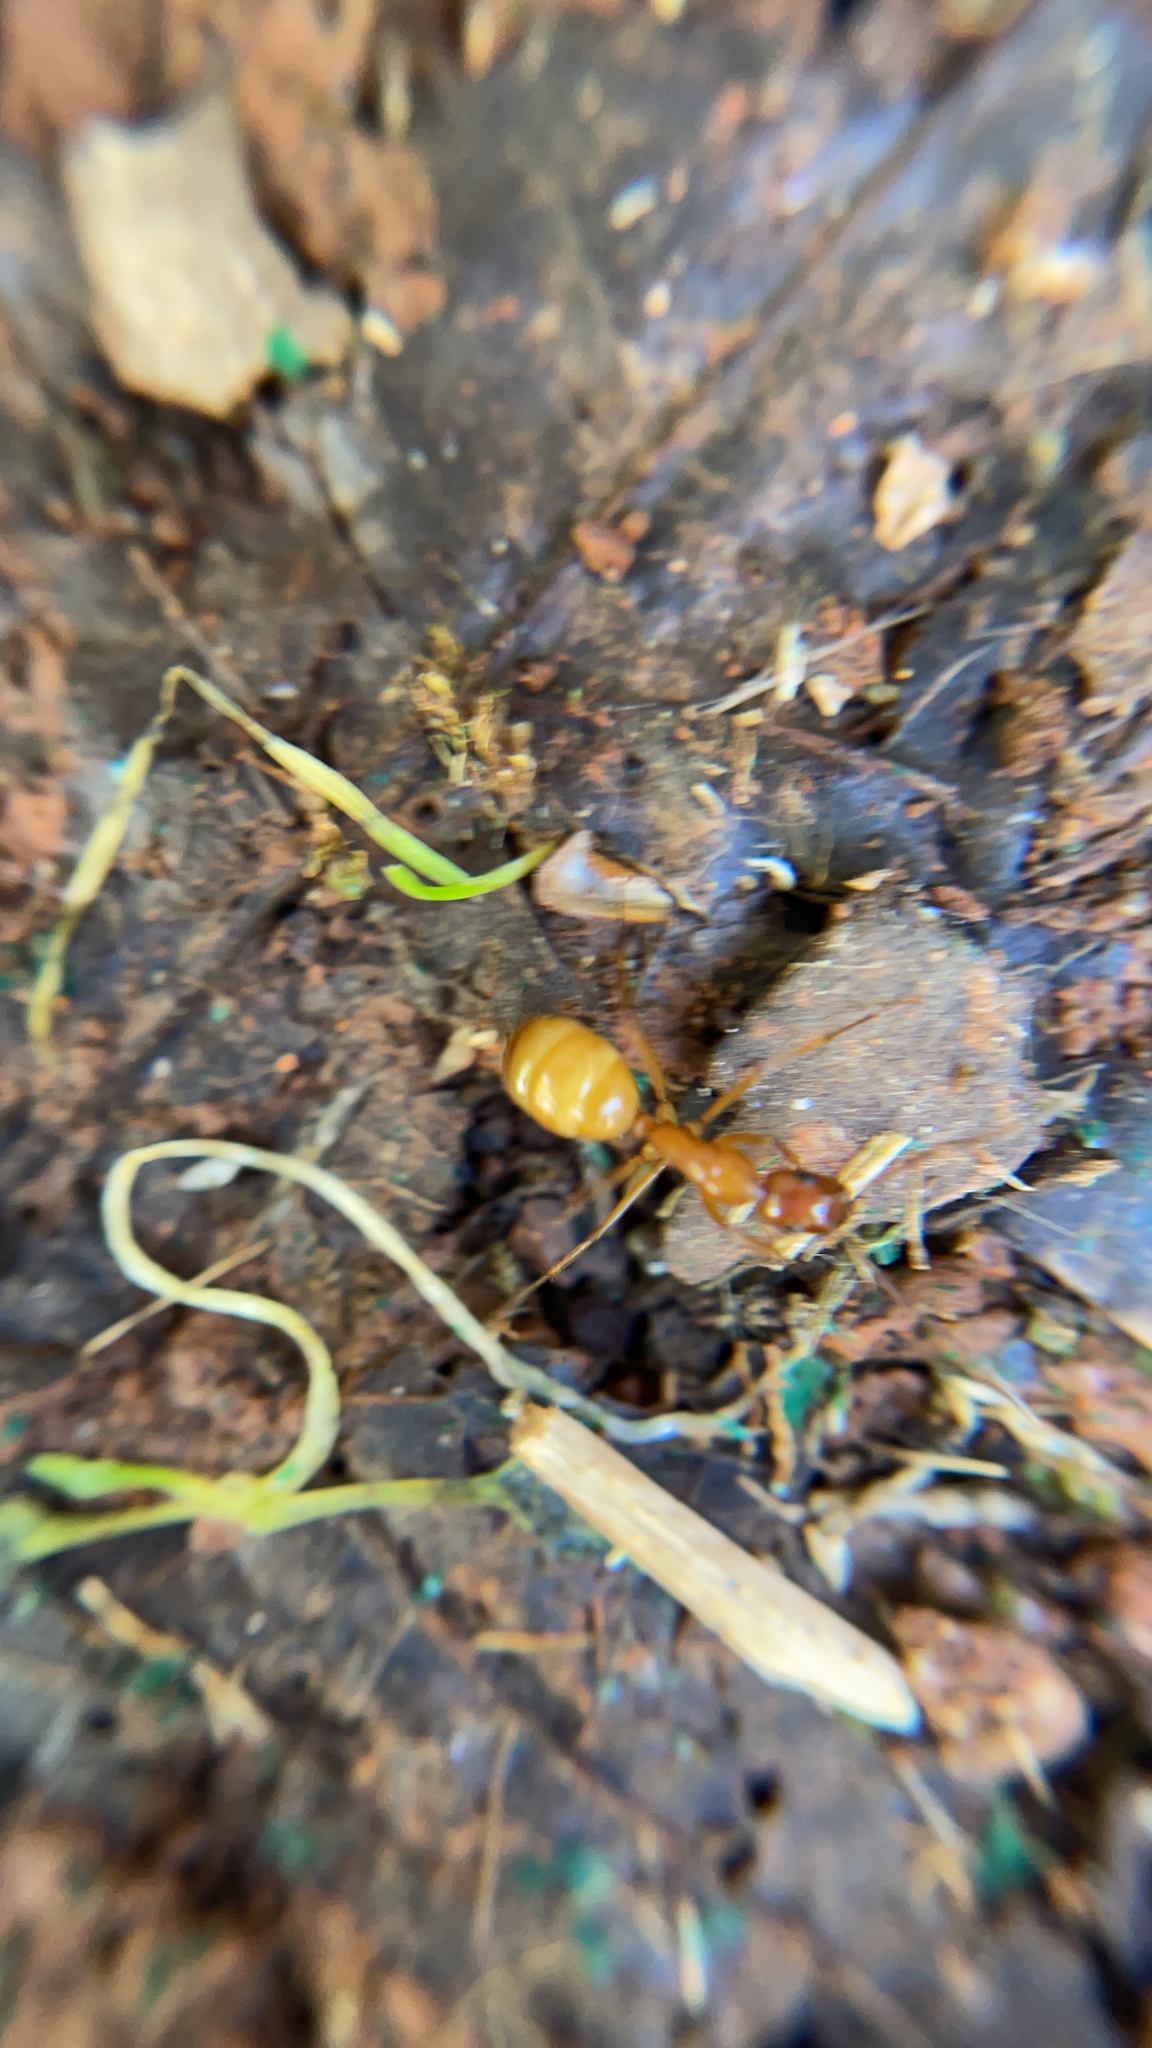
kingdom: Animalia
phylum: Arthropoda
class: Insecta
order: Hymenoptera
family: Formicidae
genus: Camponotus
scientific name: Camponotus castaneus
